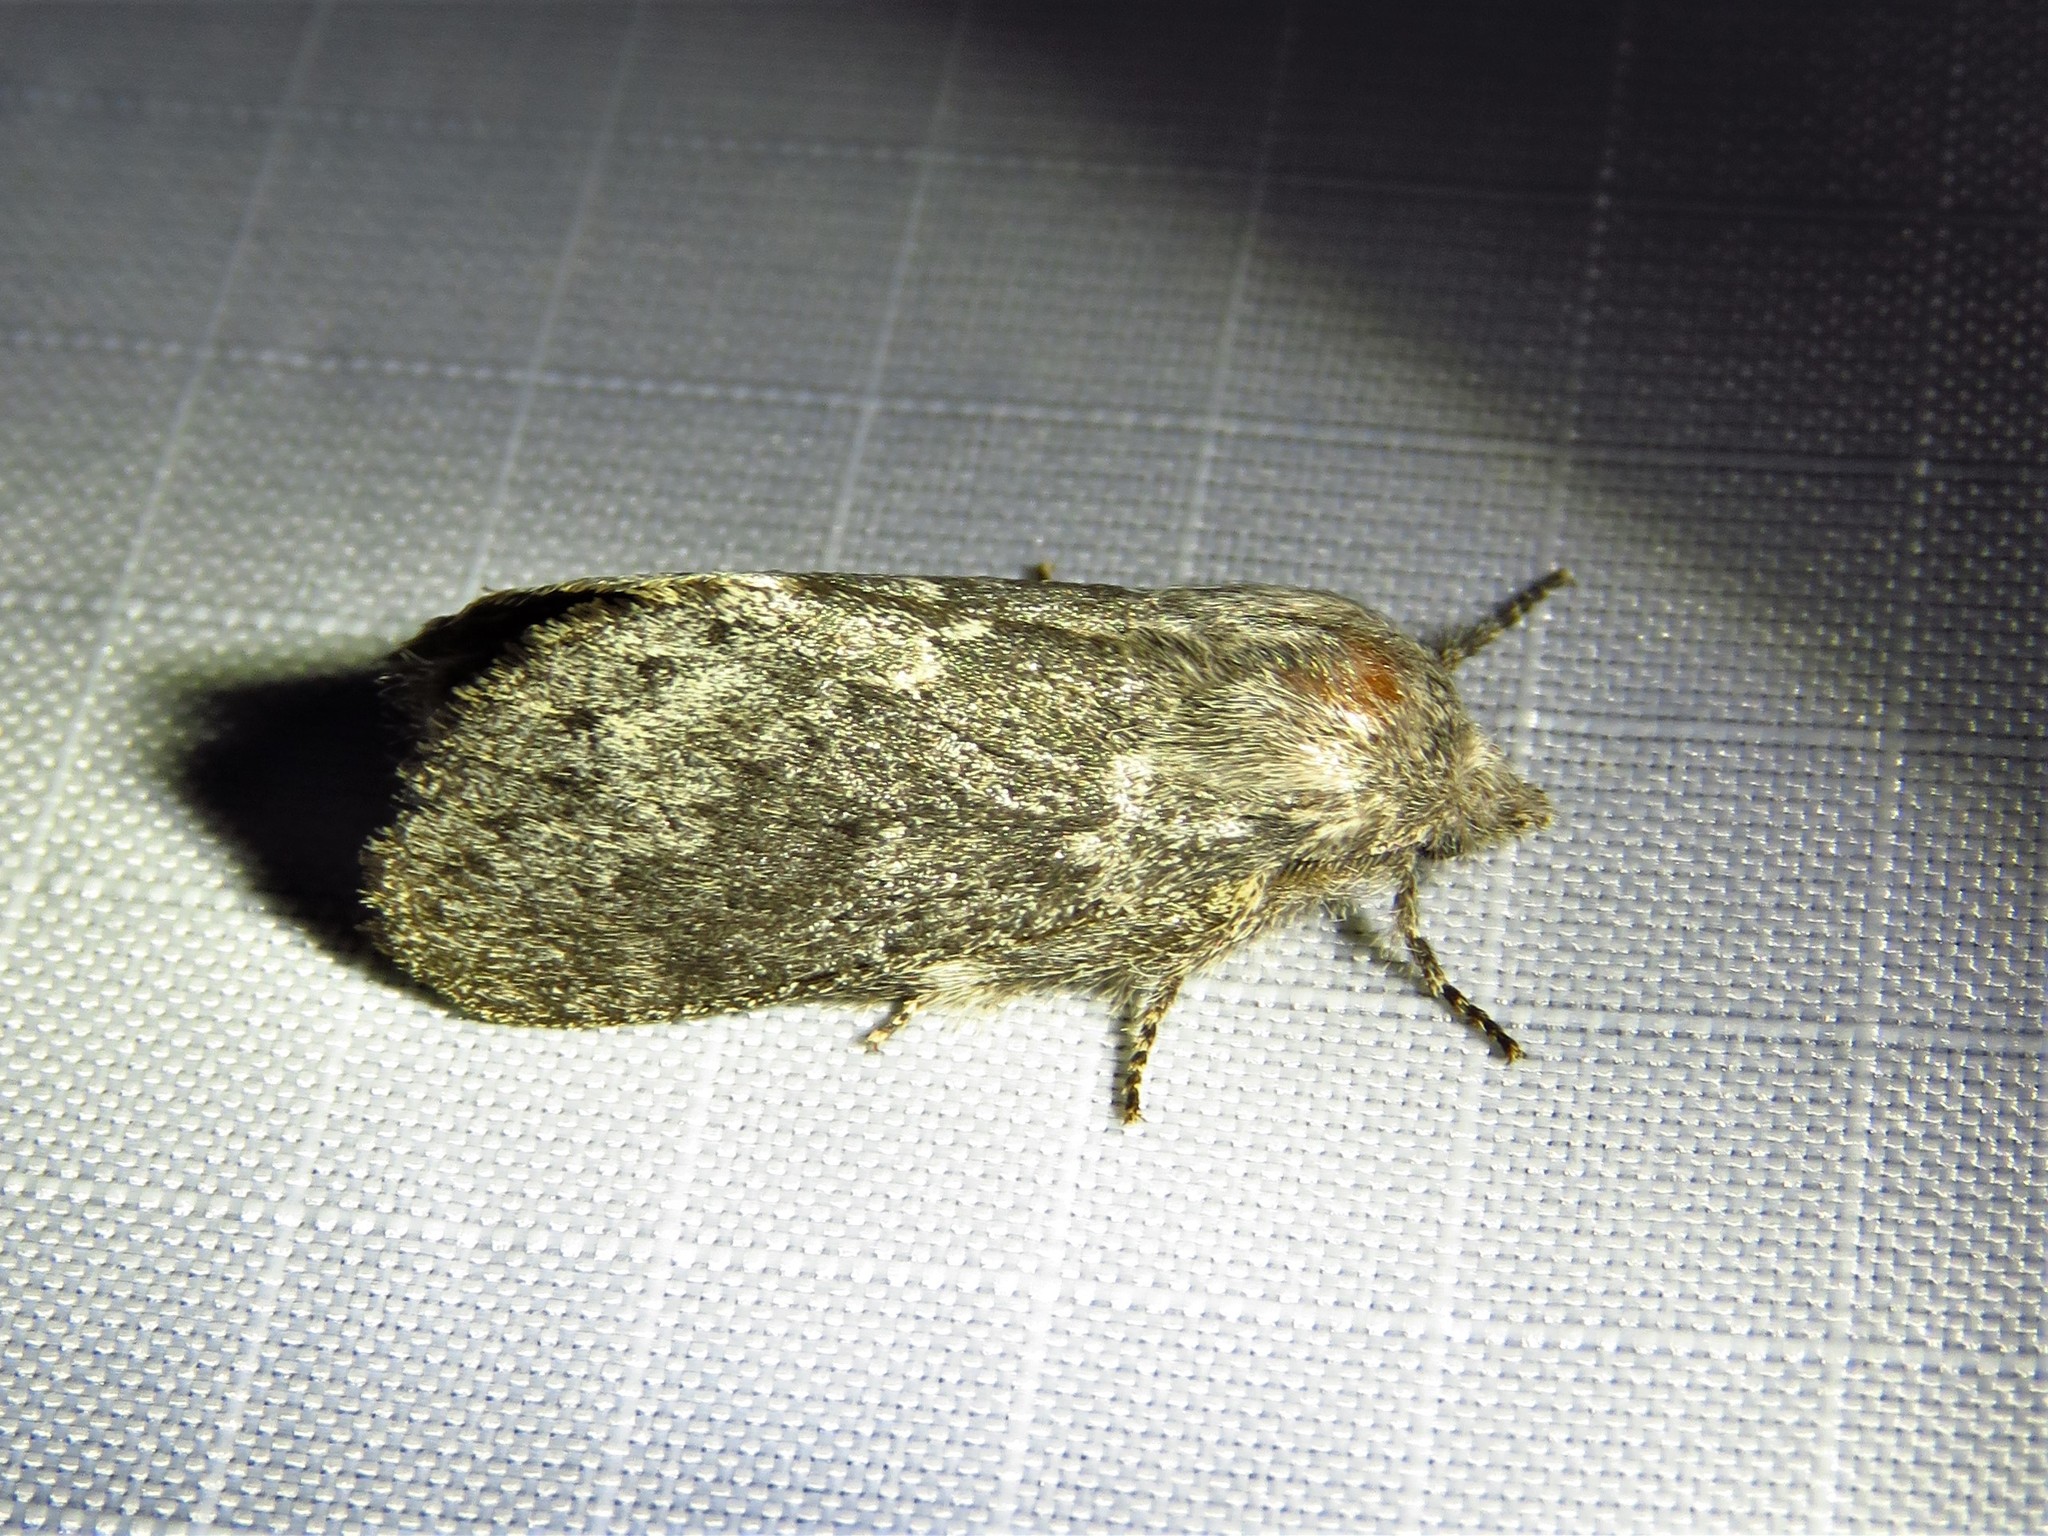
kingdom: Animalia
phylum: Arthropoda
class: Insecta
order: Lepidoptera
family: Lasiocampidae
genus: Heteropacha
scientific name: Heteropacha rileyana
